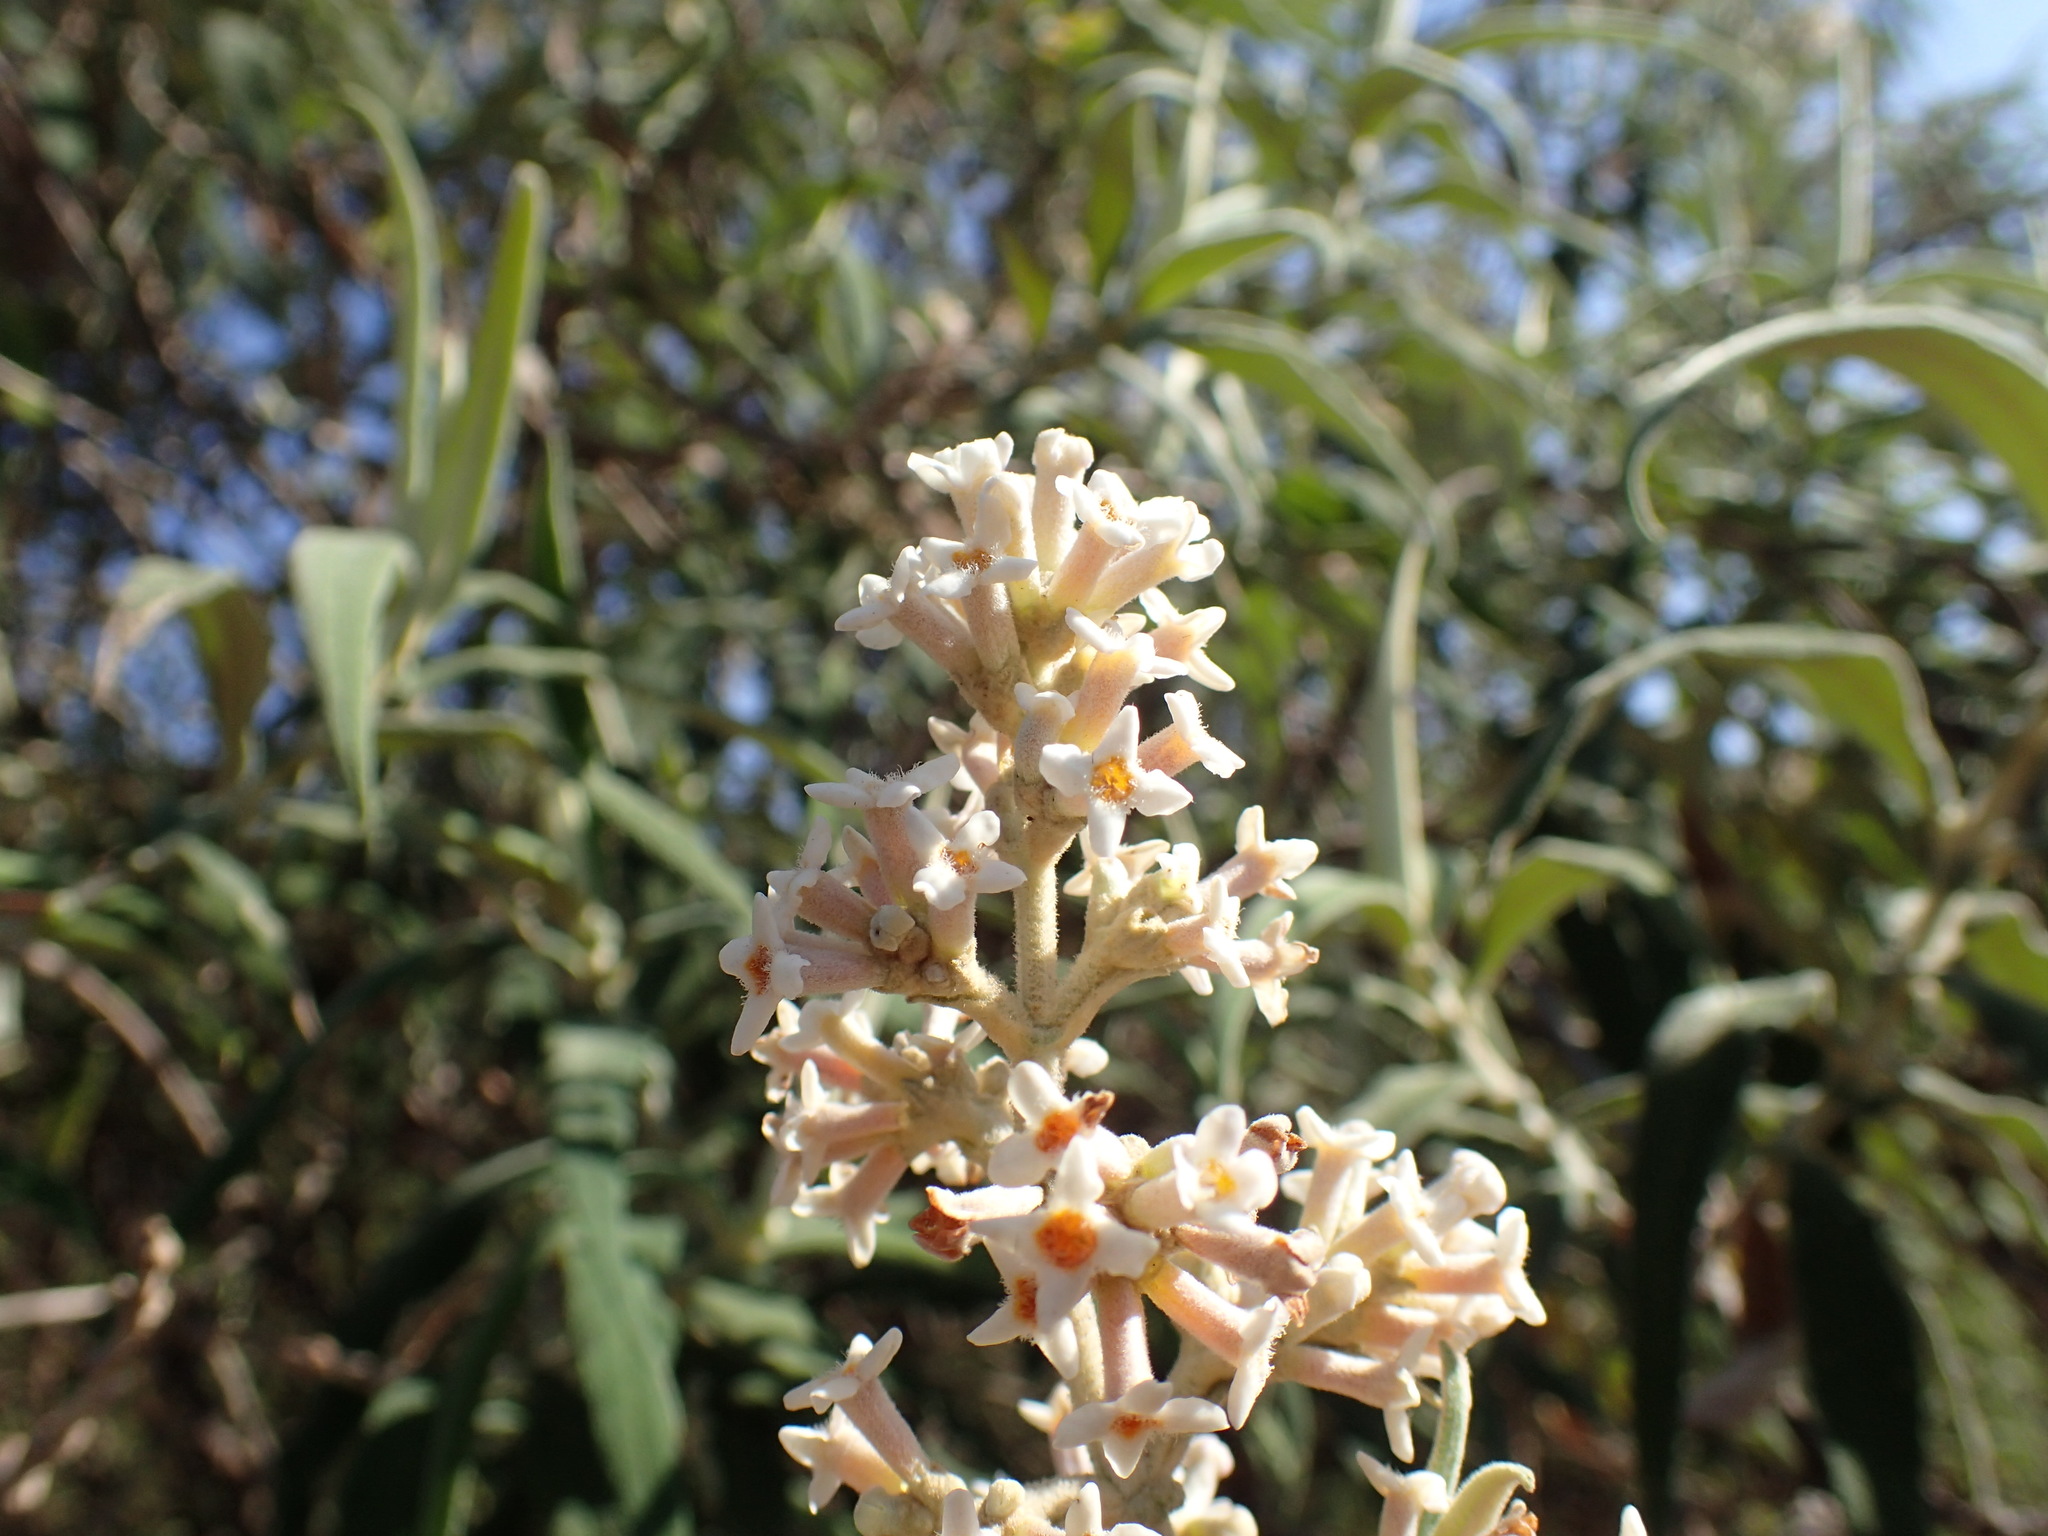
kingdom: Plantae
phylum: Tracheophyta
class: Magnoliopsida
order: Lamiales
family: Scrophulariaceae
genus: Buddleja
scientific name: Buddleja salviifolia
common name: Sagewood
